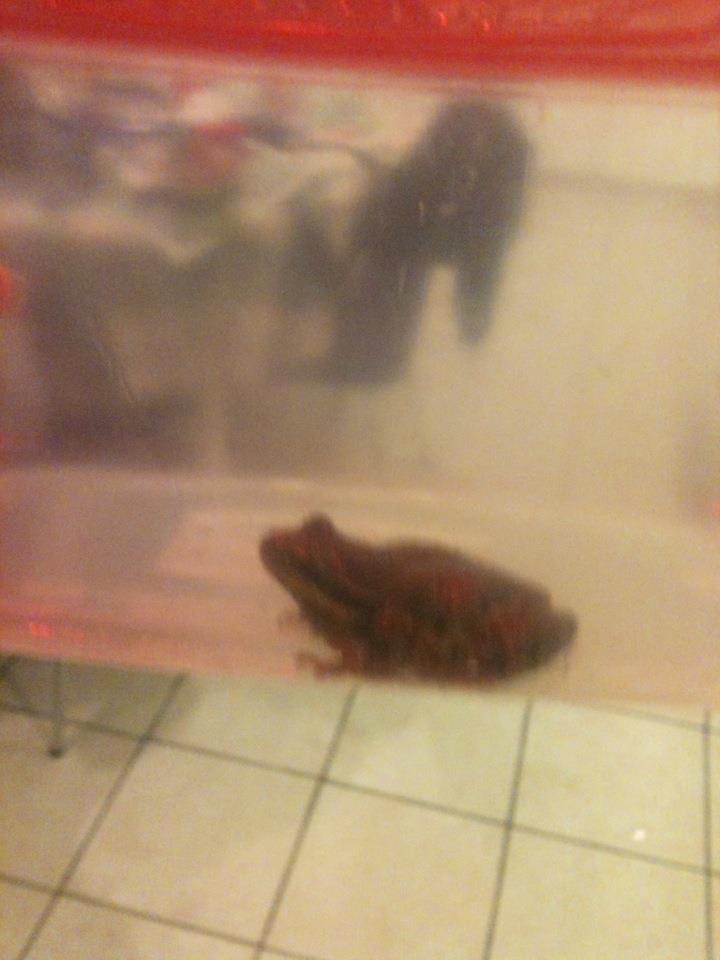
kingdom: Animalia
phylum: Chordata
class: Amphibia
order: Anura
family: Hylidae
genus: Pseudacris
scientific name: Pseudacris regilla
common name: Pacific chorus frog
